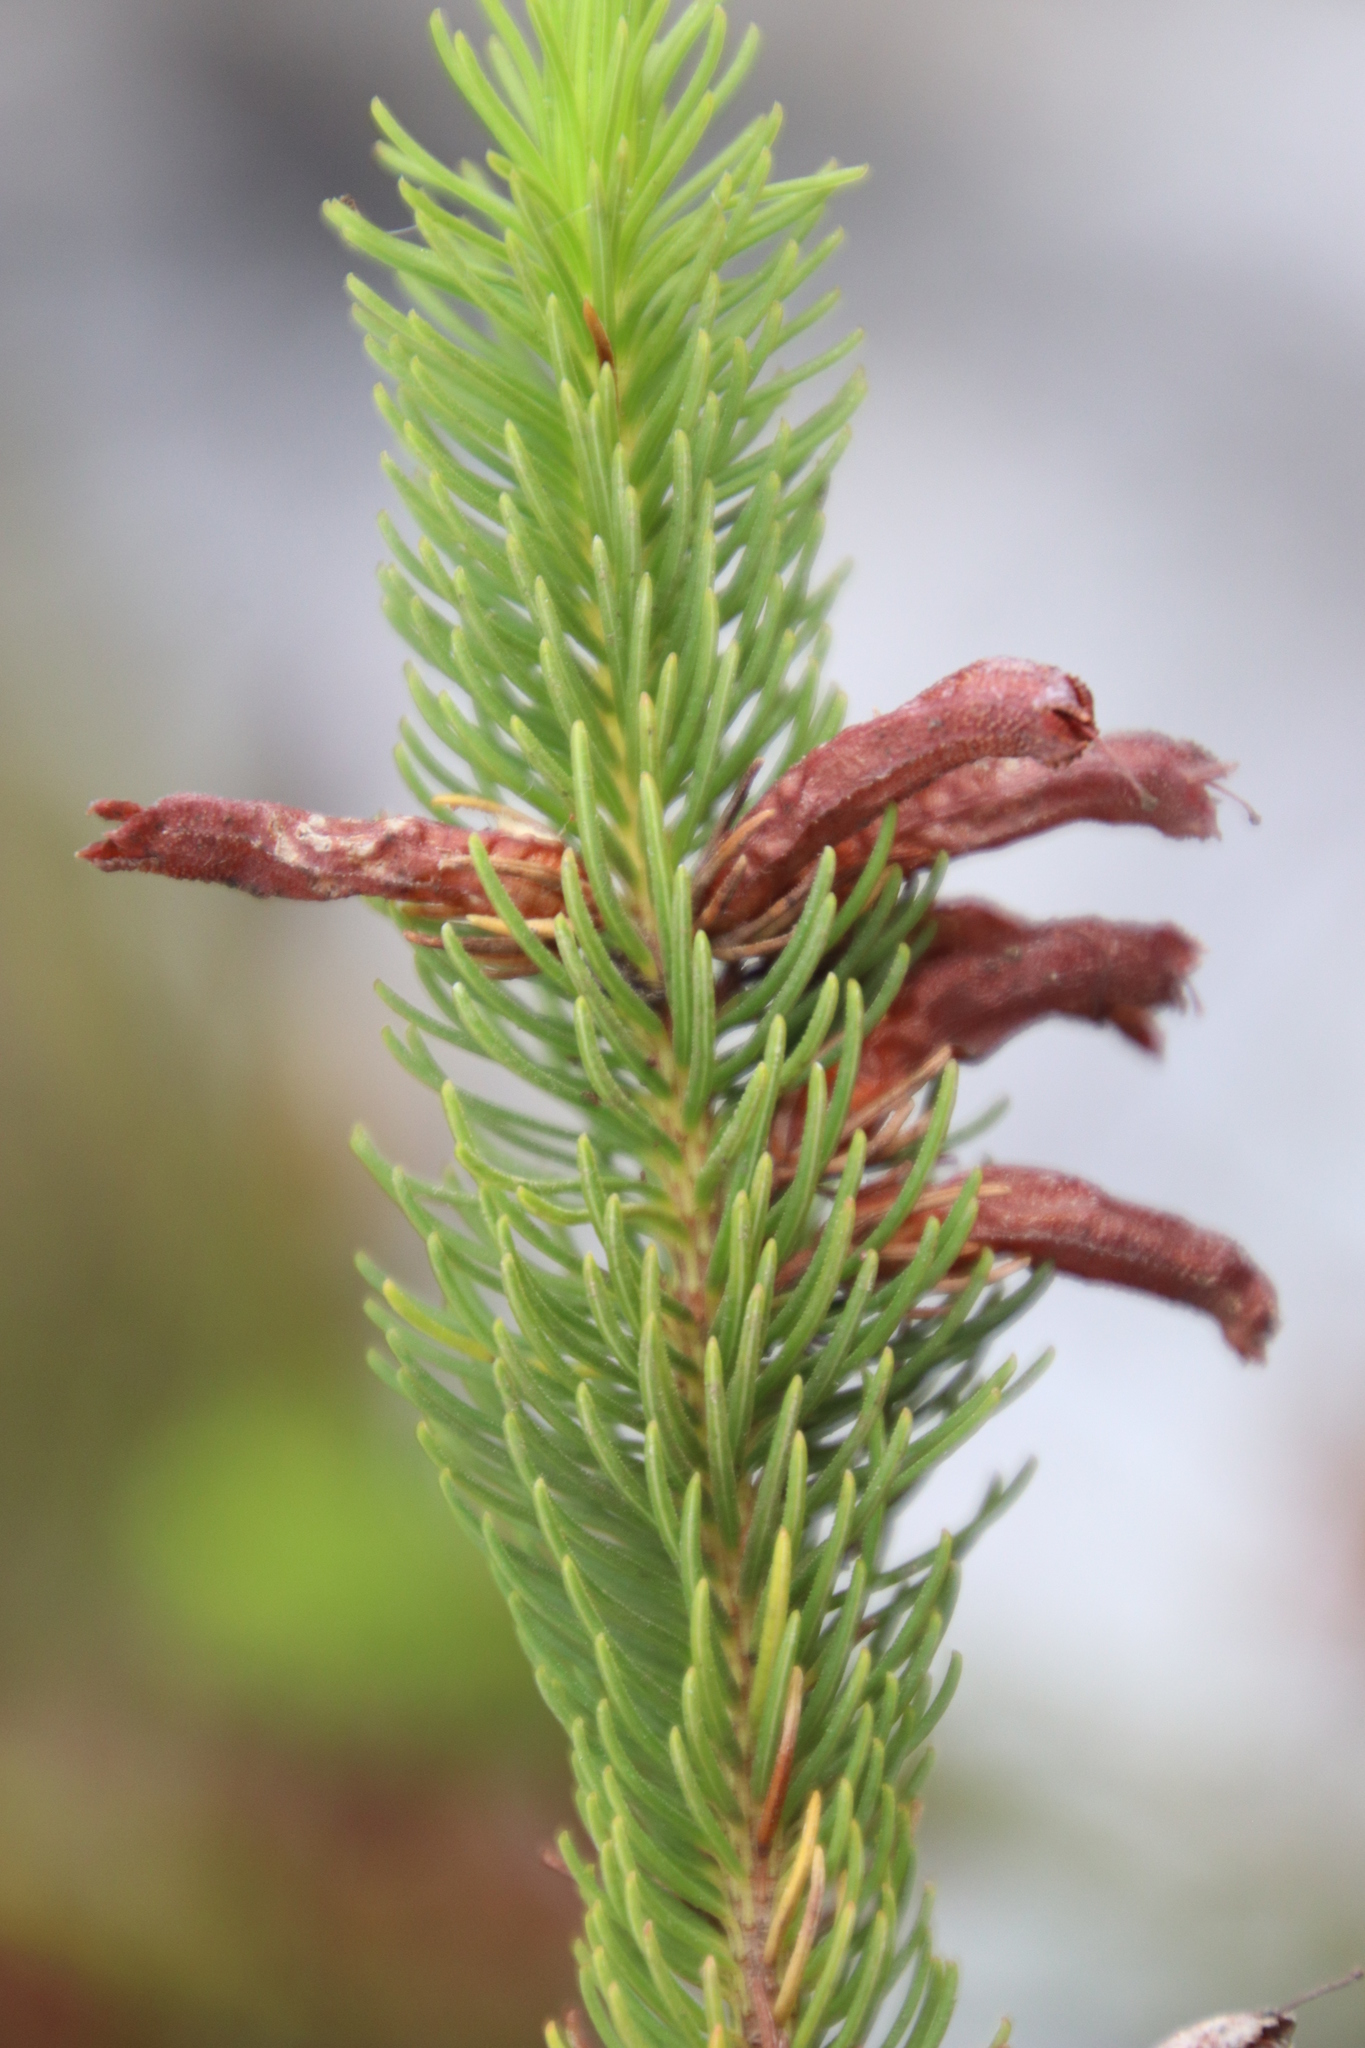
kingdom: Plantae
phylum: Tracheophyta
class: Magnoliopsida
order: Ericales
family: Ericaceae
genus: Erica
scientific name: Erica viscaria
